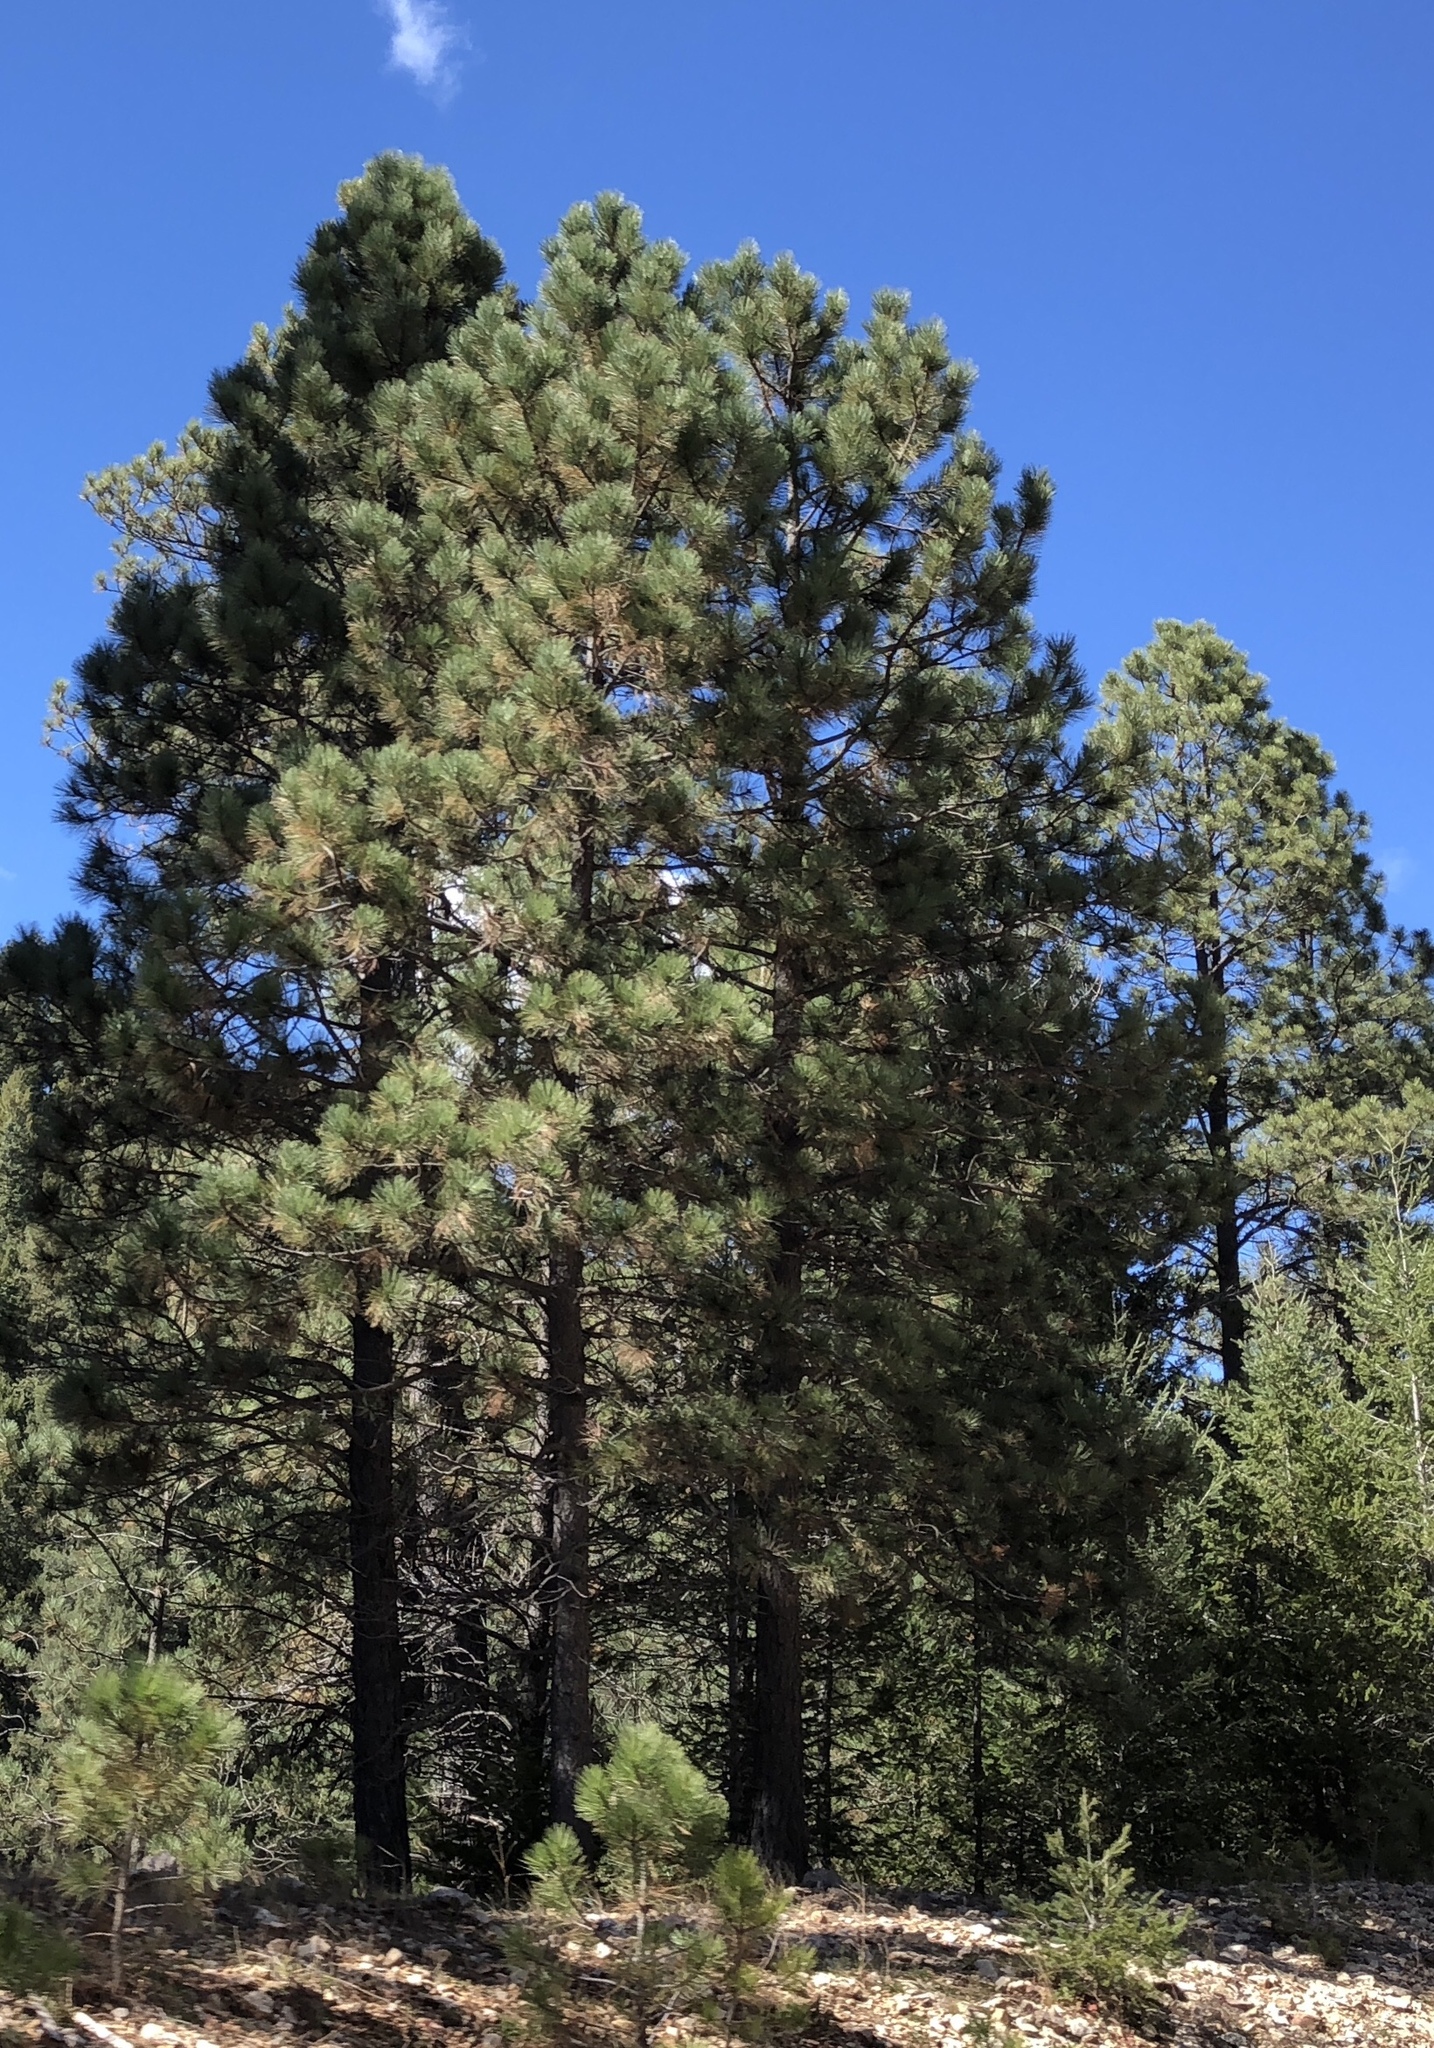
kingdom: Plantae
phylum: Tracheophyta
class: Pinopsida
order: Pinales
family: Pinaceae
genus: Pinus
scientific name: Pinus ponderosa
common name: Western yellow-pine
